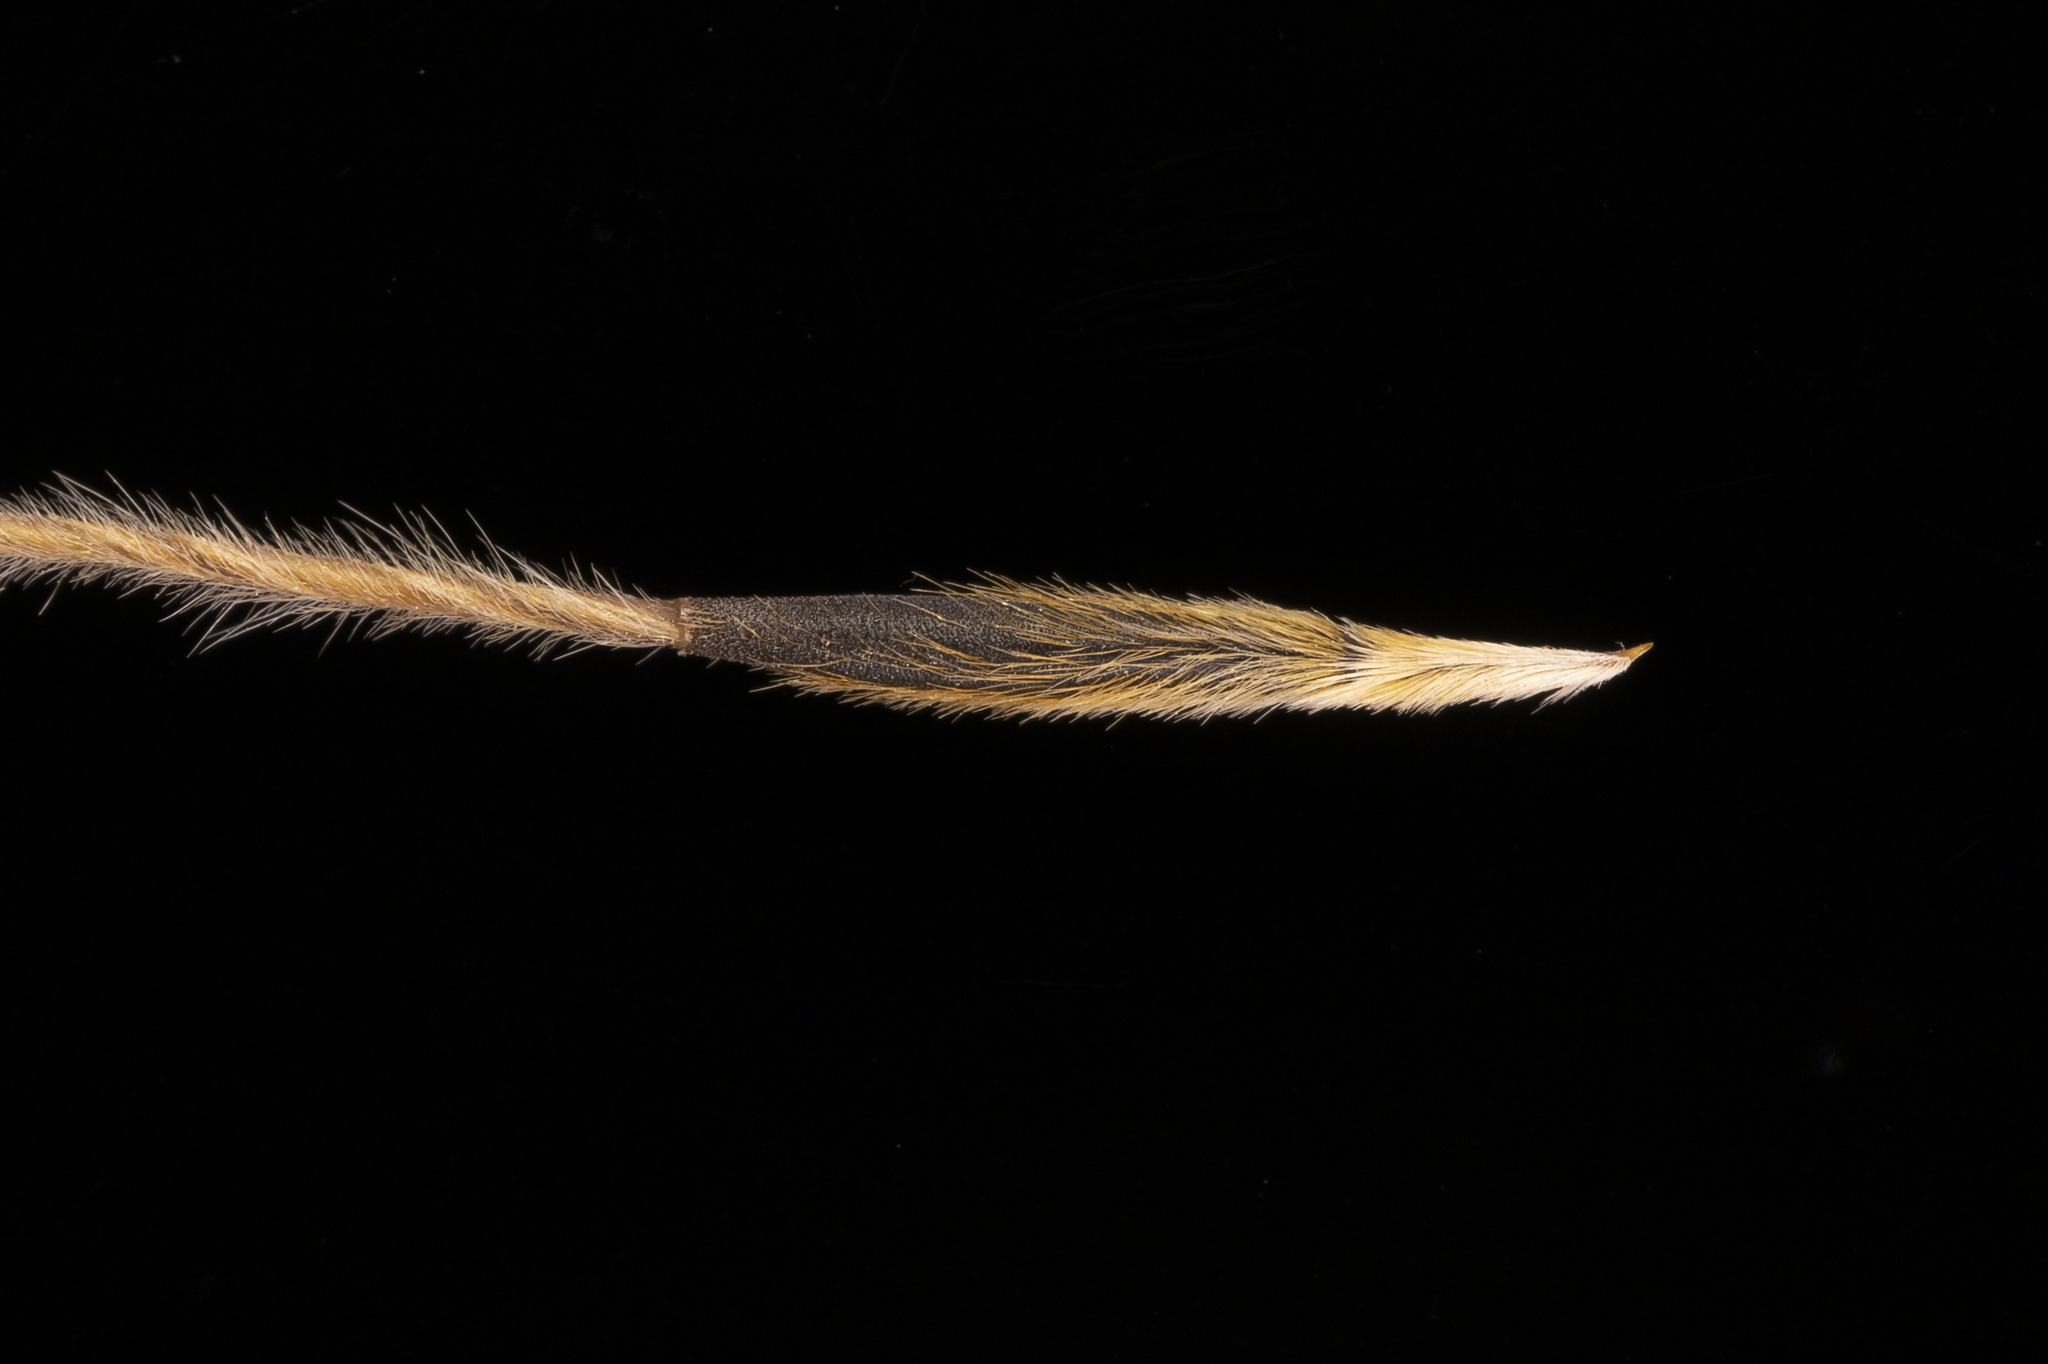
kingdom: Plantae
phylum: Tracheophyta
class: Liliopsida
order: Poales
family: Poaceae
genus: Austrostipa
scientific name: Austrostipa semibarbata
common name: Fibrous spear grass
